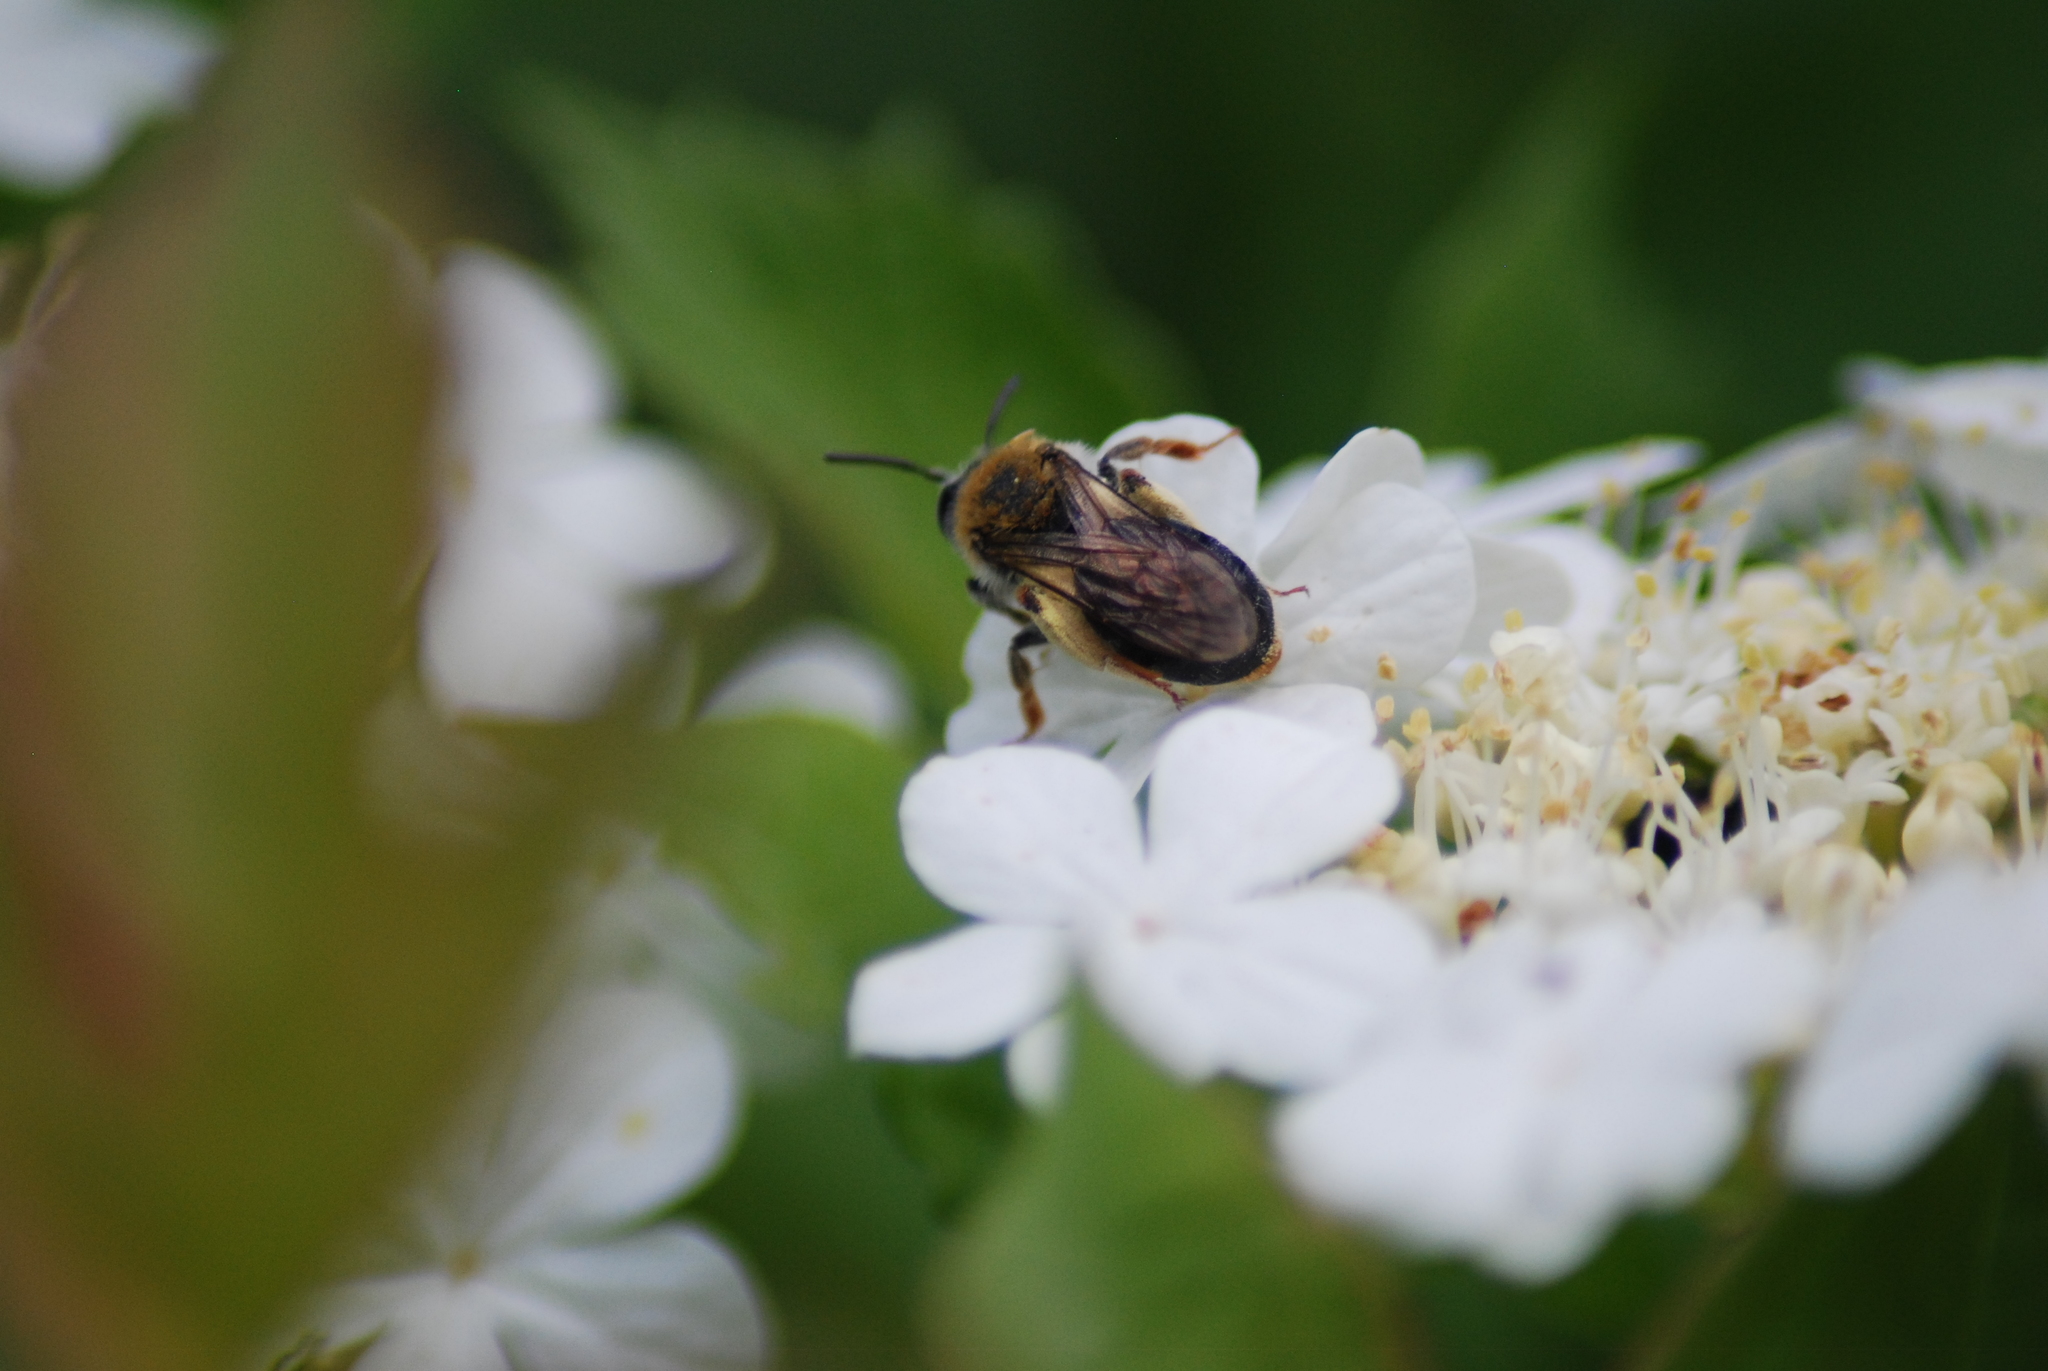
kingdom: Animalia
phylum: Arthropoda
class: Insecta
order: Hymenoptera
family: Andrenidae
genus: Andrena
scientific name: Andrena haemorrhoa
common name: Early mining bee
